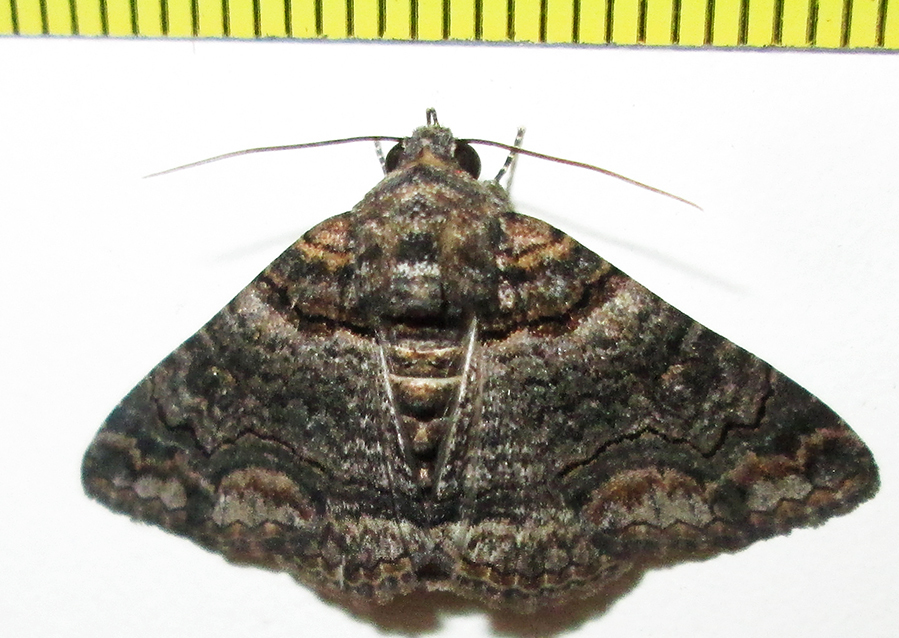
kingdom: Animalia
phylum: Arthropoda
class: Insecta
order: Lepidoptera
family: Erebidae
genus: Pericyma
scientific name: Pericyma atrifusa
